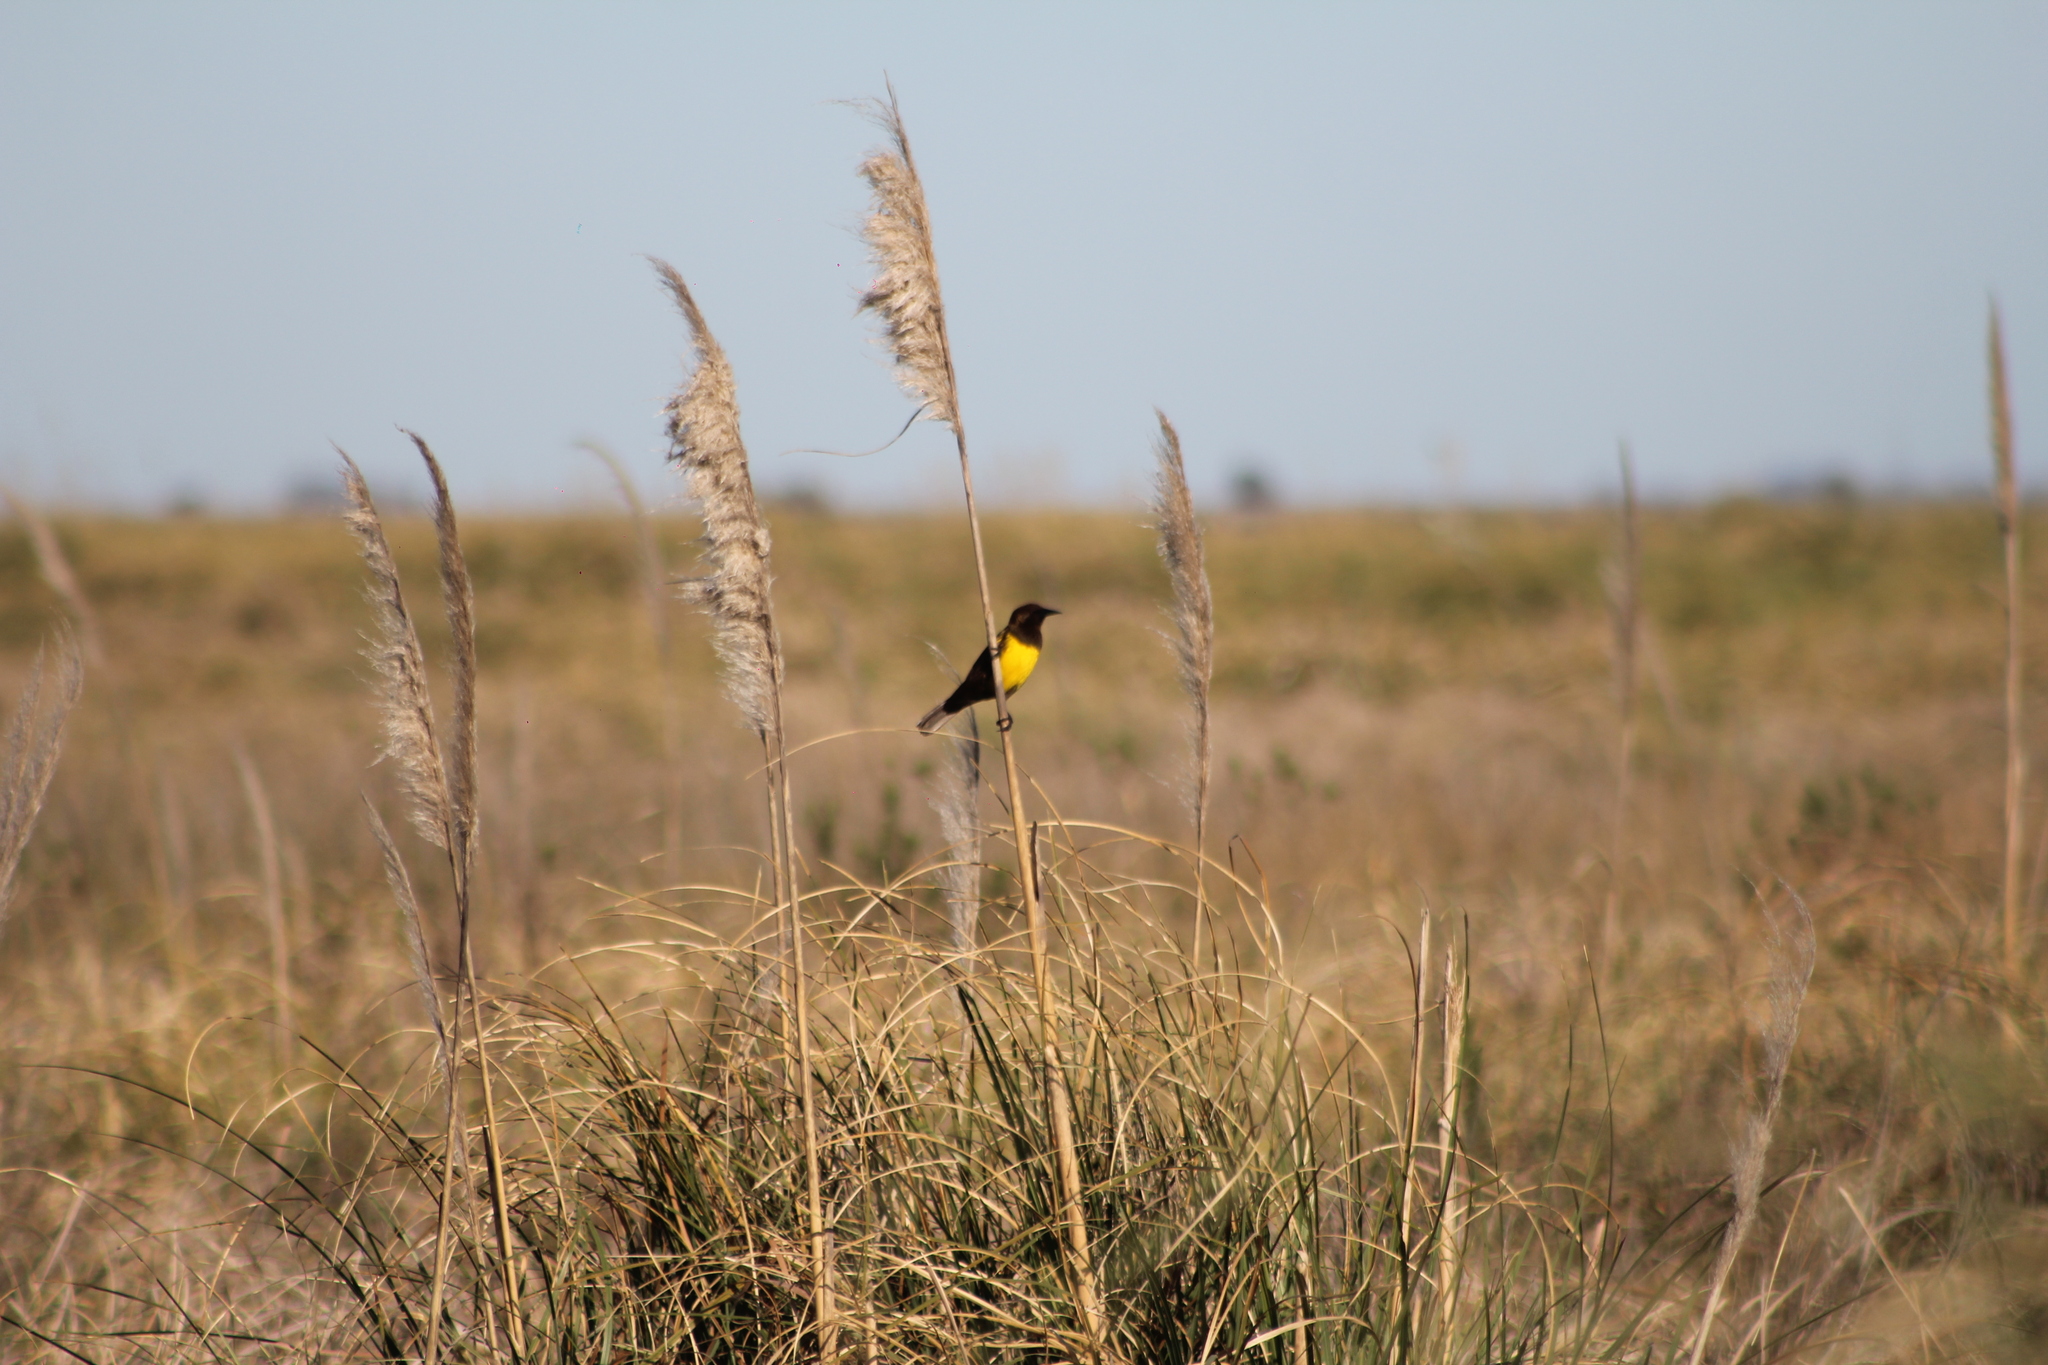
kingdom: Animalia
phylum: Chordata
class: Aves
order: Passeriformes
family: Icteridae
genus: Pseudoleistes
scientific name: Pseudoleistes virescens
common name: Brown-and-yellow marshbird
